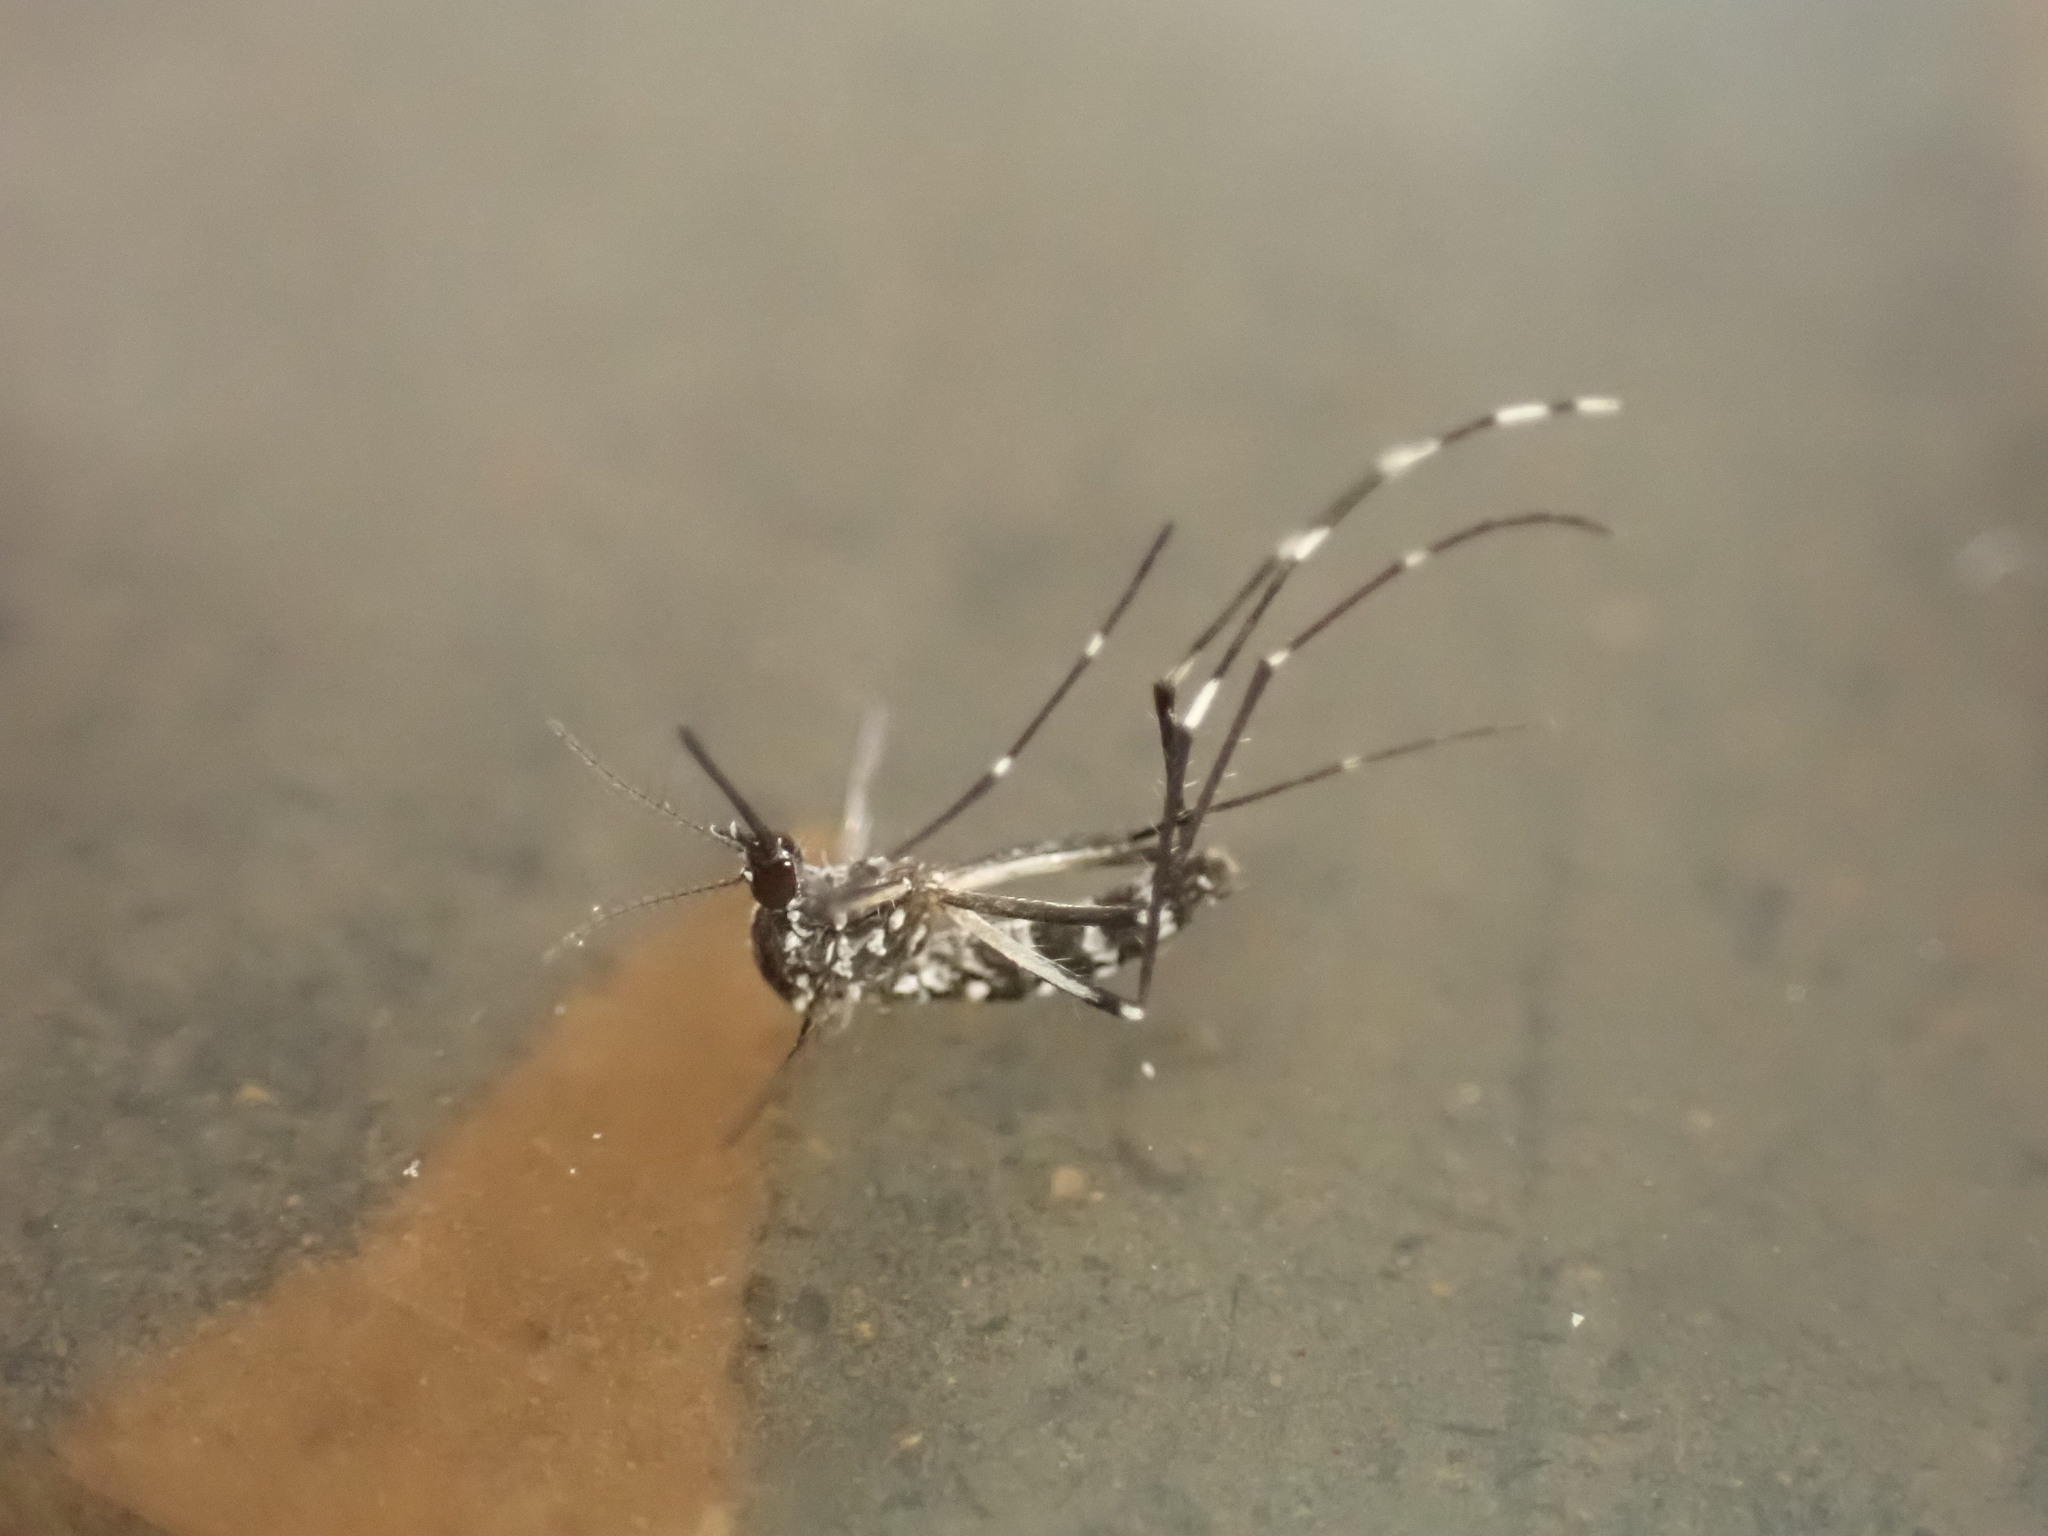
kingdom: Animalia
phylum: Arthropoda
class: Insecta
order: Diptera
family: Culicidae
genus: Aedes
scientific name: Aedes albopictus
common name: Tiger mosquito
